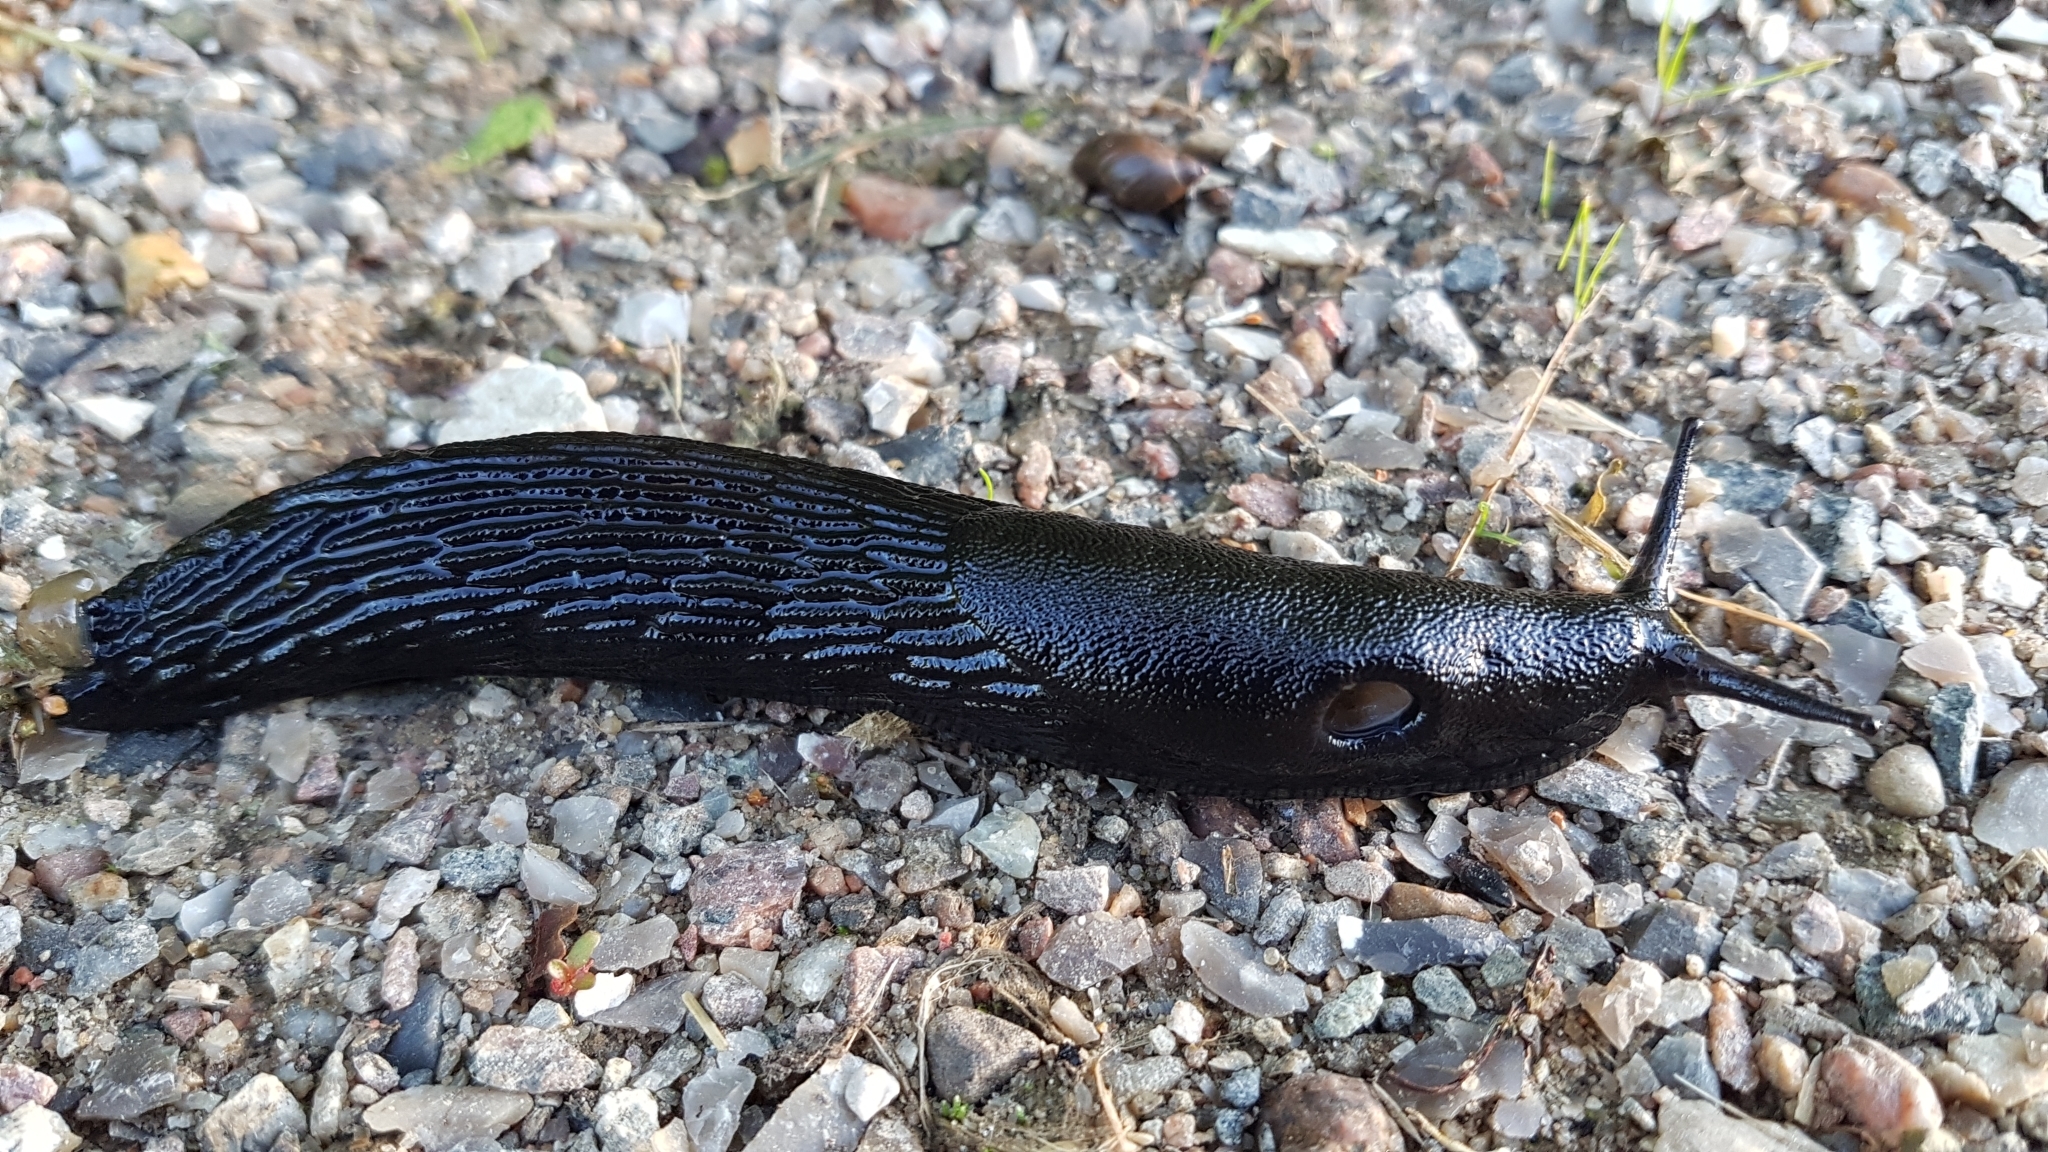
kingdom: Animalia
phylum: Mollusca
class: Gastropoda
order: Stylommatophora
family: Arionidae
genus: Arion
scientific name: Arion ater
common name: Black arion
